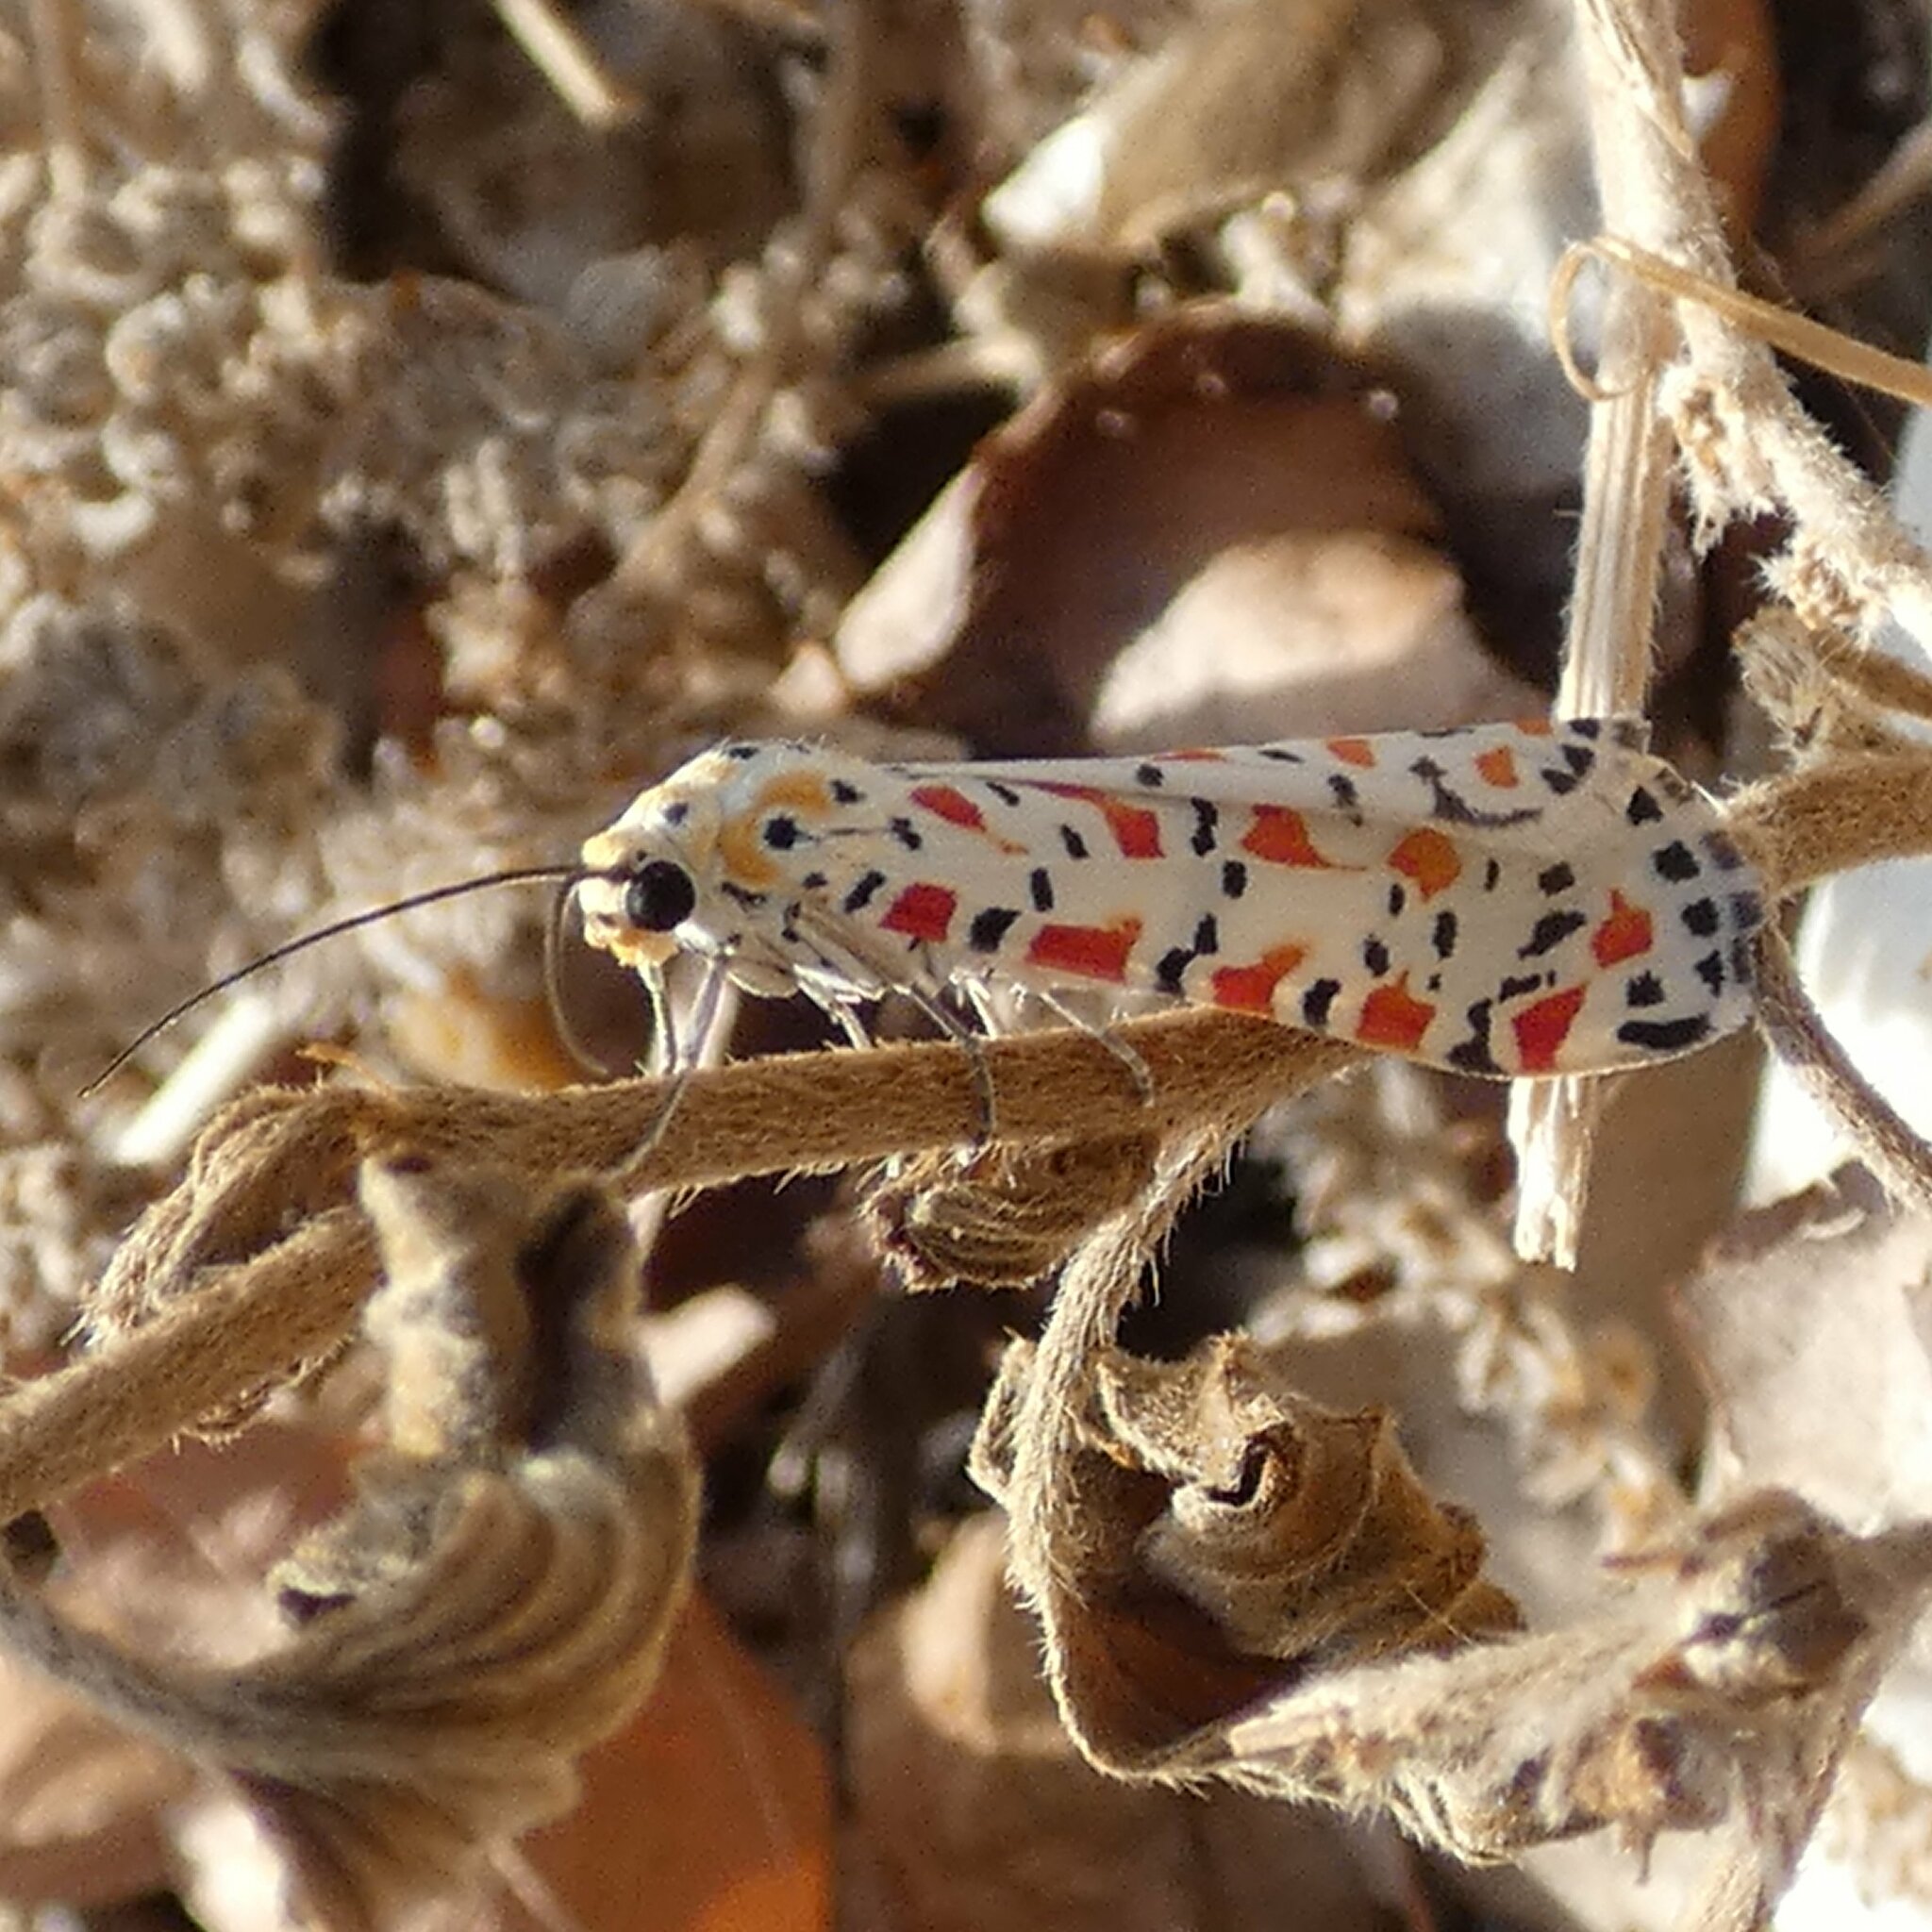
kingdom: Animalia
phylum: Arthropoda
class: Insecta
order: Lepidoptera
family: Erebidae
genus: Utetheisa
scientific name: Utetheisa pulchella
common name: Crimson speckled
